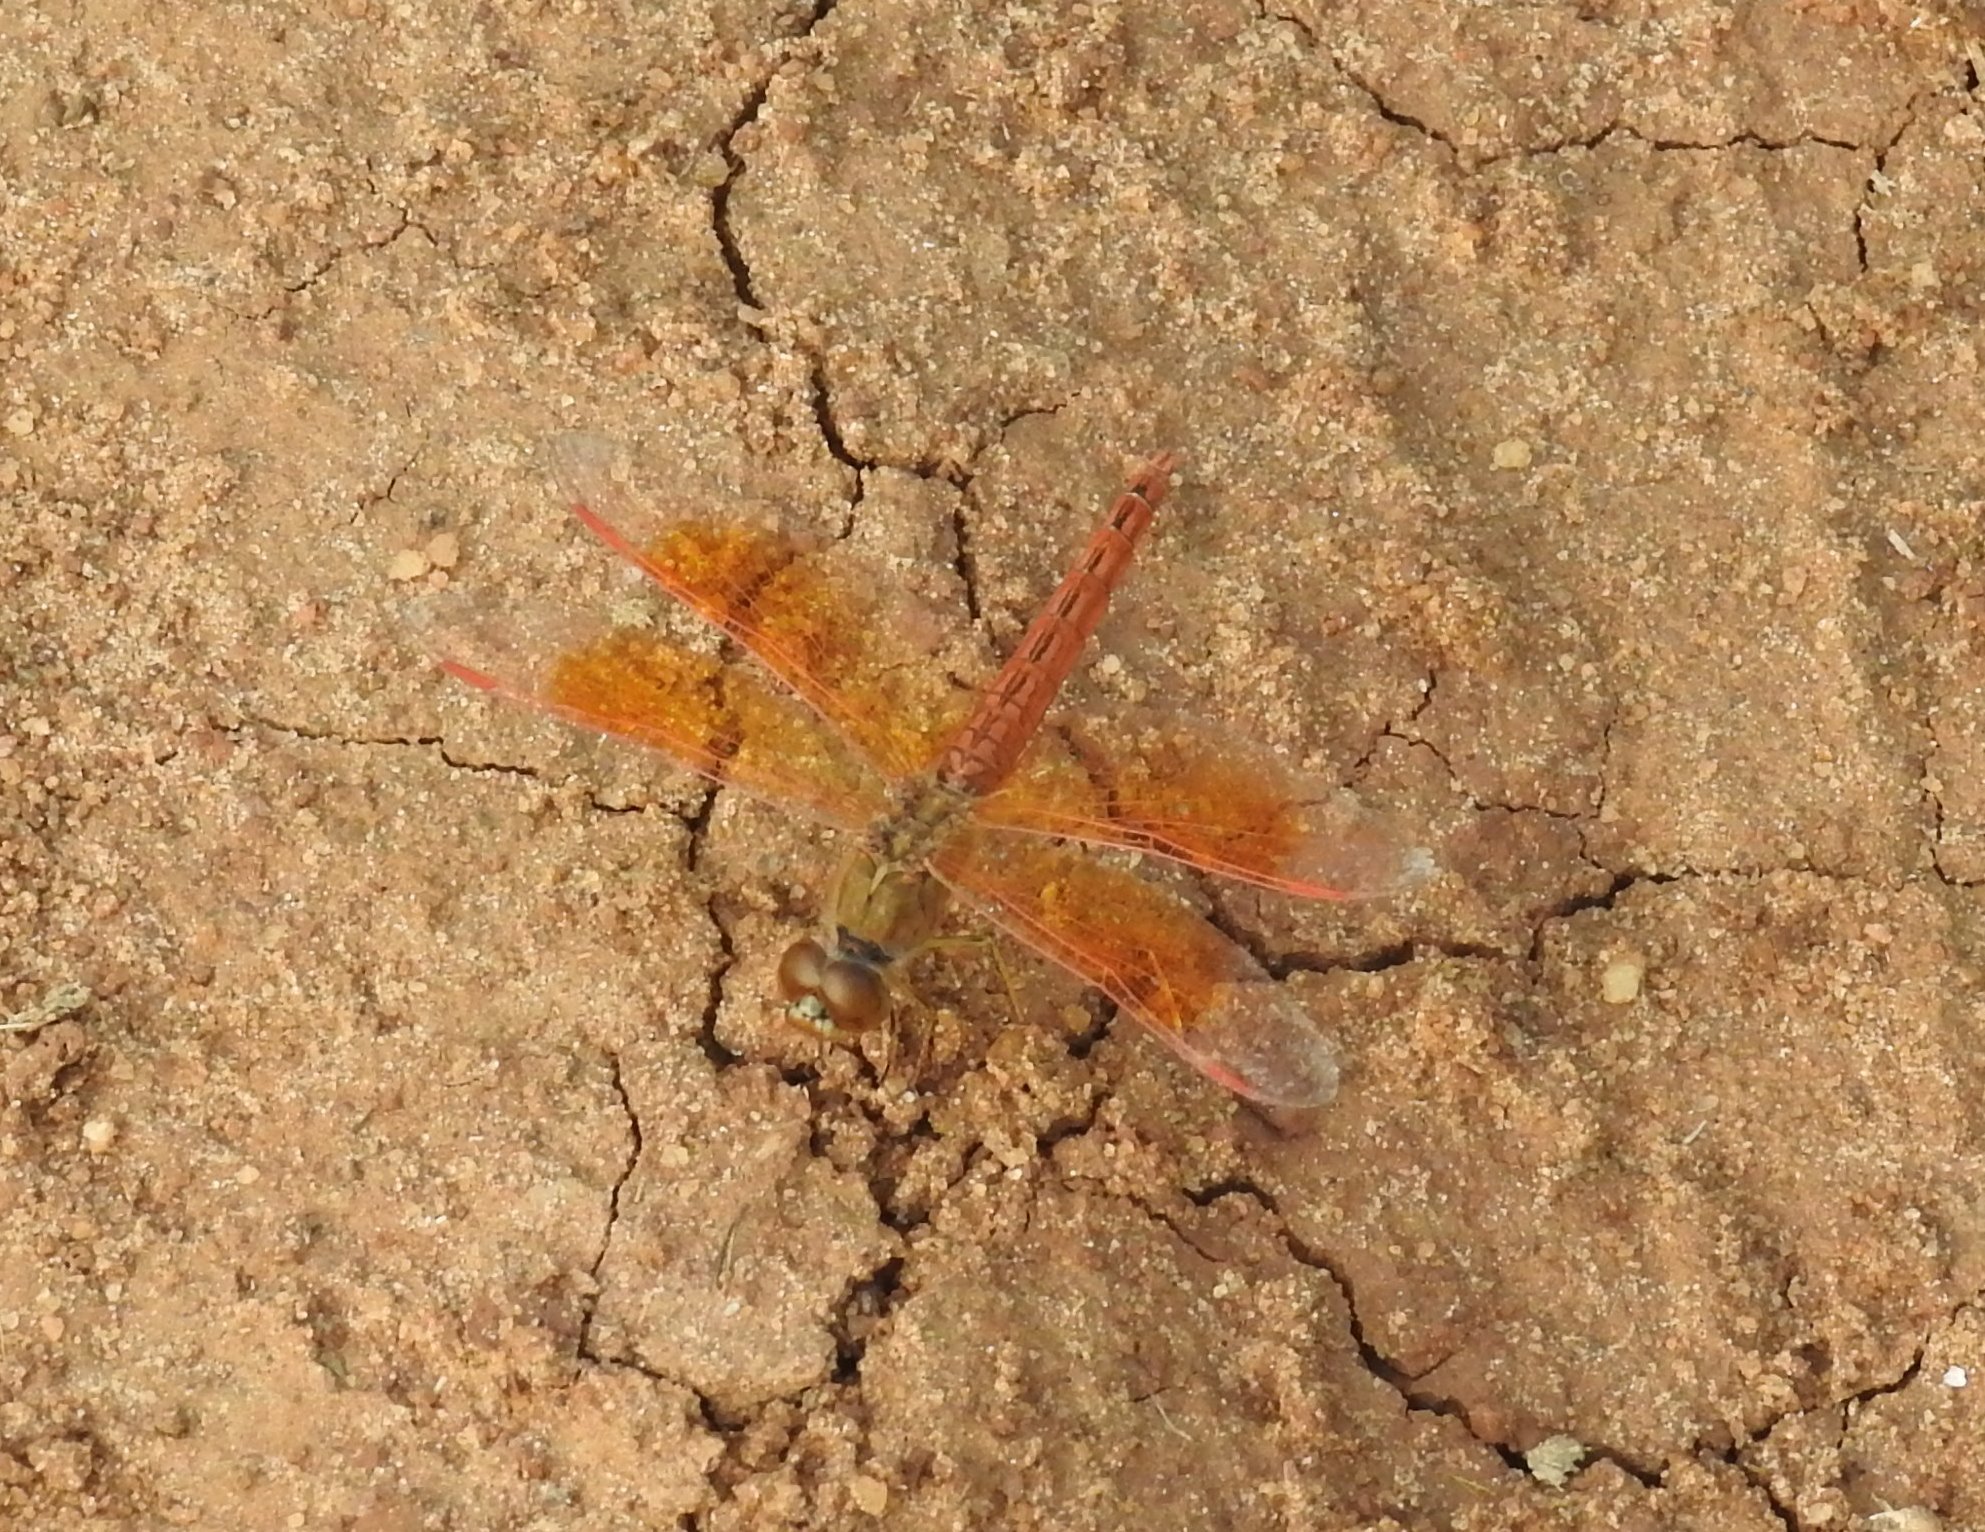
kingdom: Animalia
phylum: Arthropoda
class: Insecta
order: Odonata
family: Libellulidae
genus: Brachythemis
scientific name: Brachythemis contaminata
